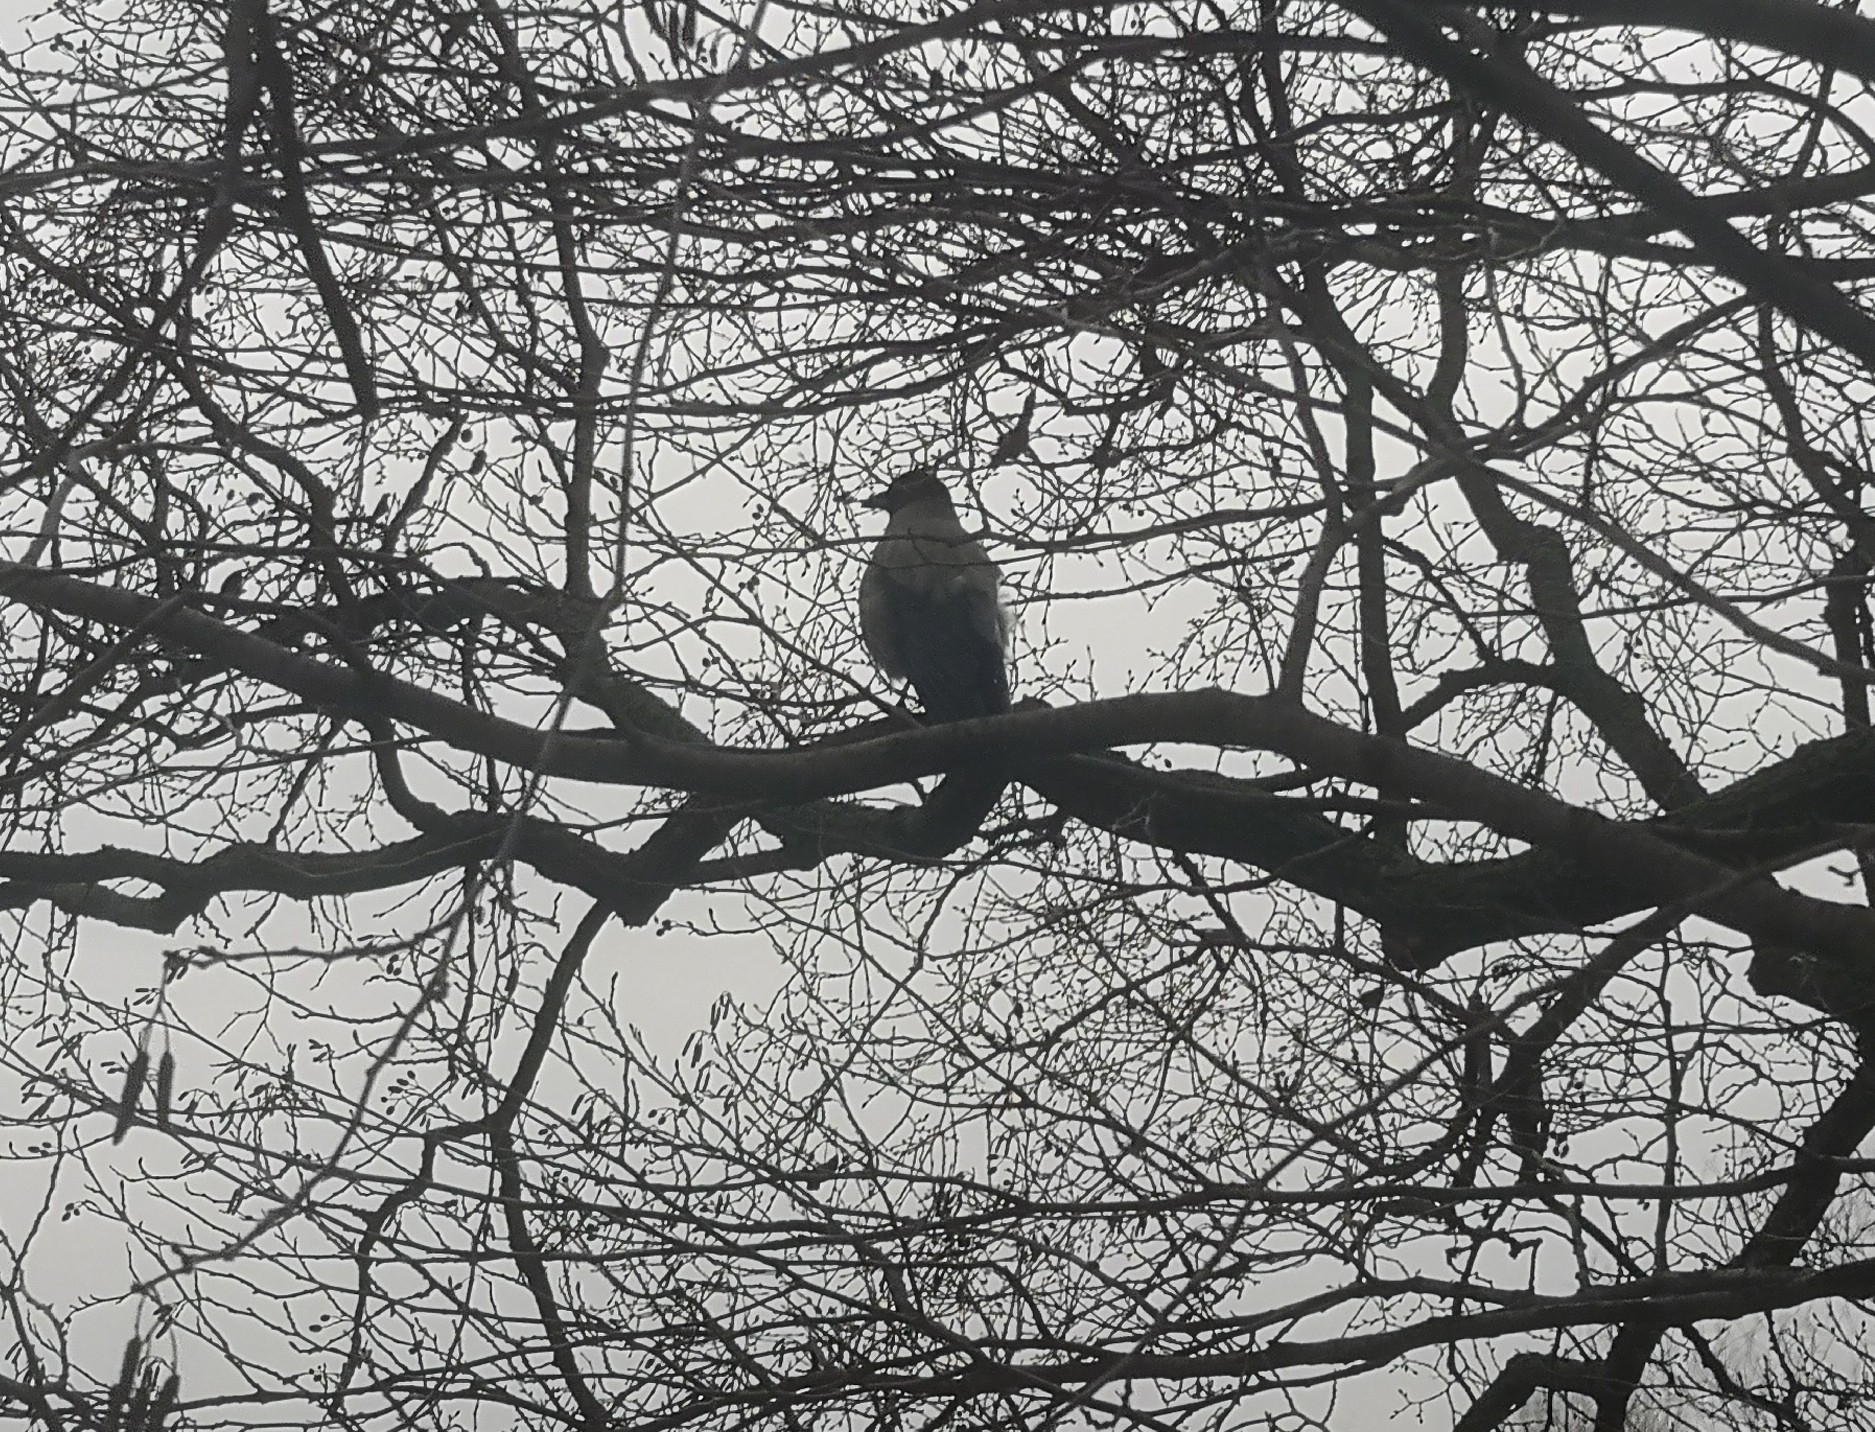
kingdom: Animalia
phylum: Chordata
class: Aves
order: Passeriformes
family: Corvidae
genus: Corvus
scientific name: Corvus cornix
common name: Hooded crow
